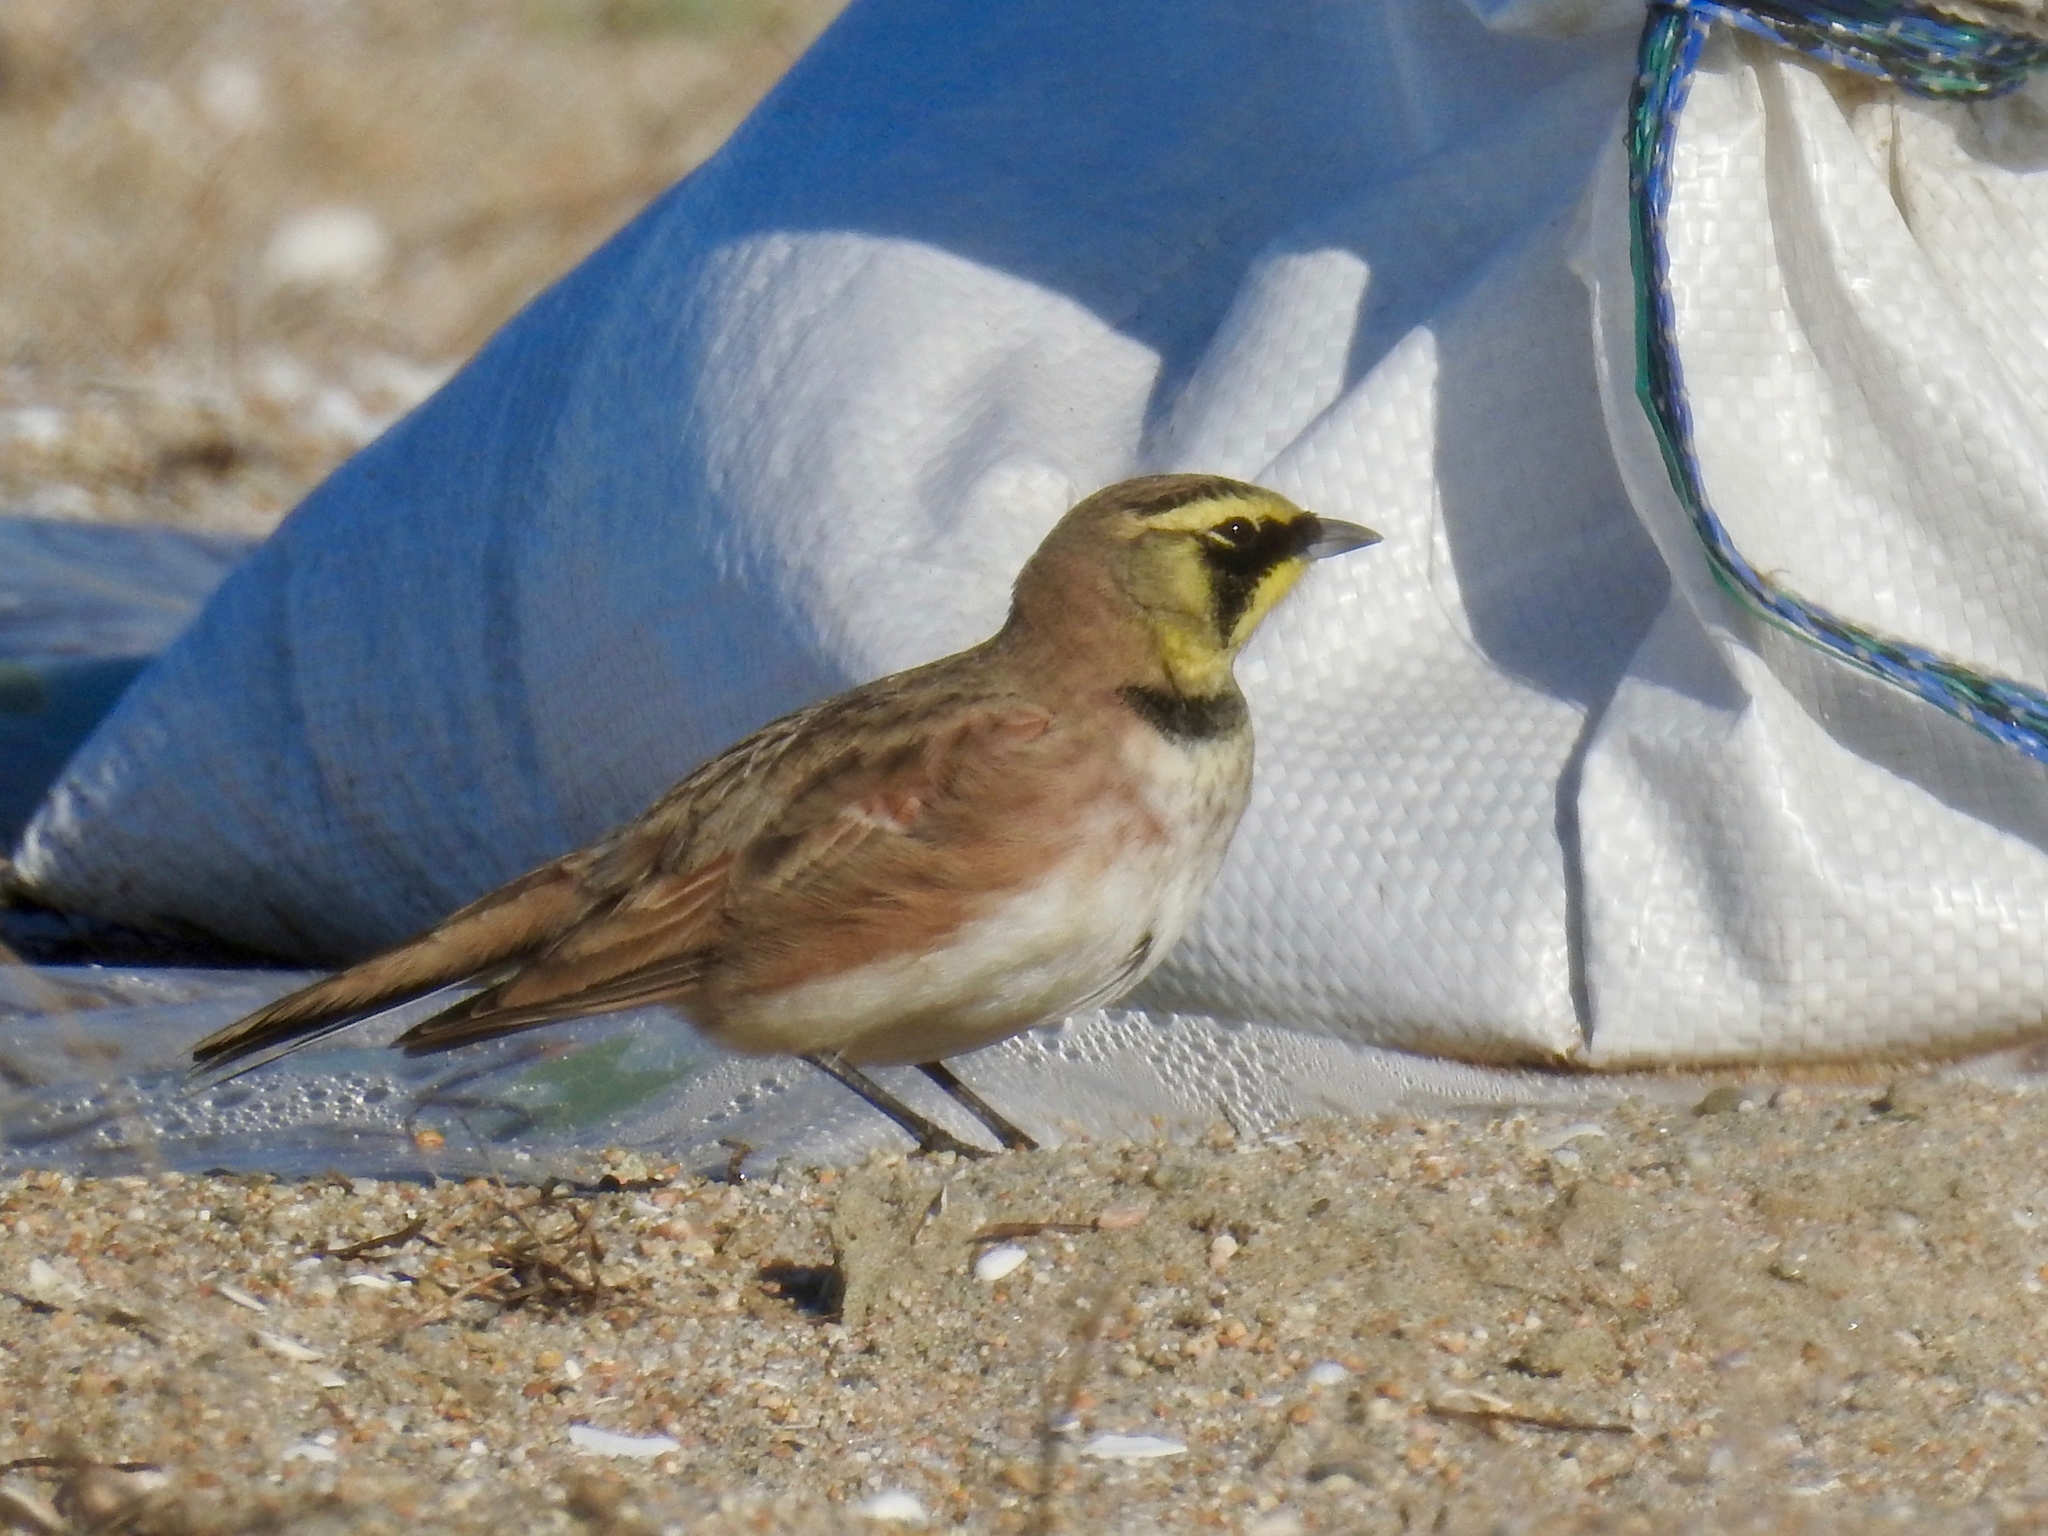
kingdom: Animalia
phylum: Chordata
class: Aves
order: Passeriformes
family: Alaudidae
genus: Eremophila
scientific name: Eremophila alpestris
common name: Horned lark
